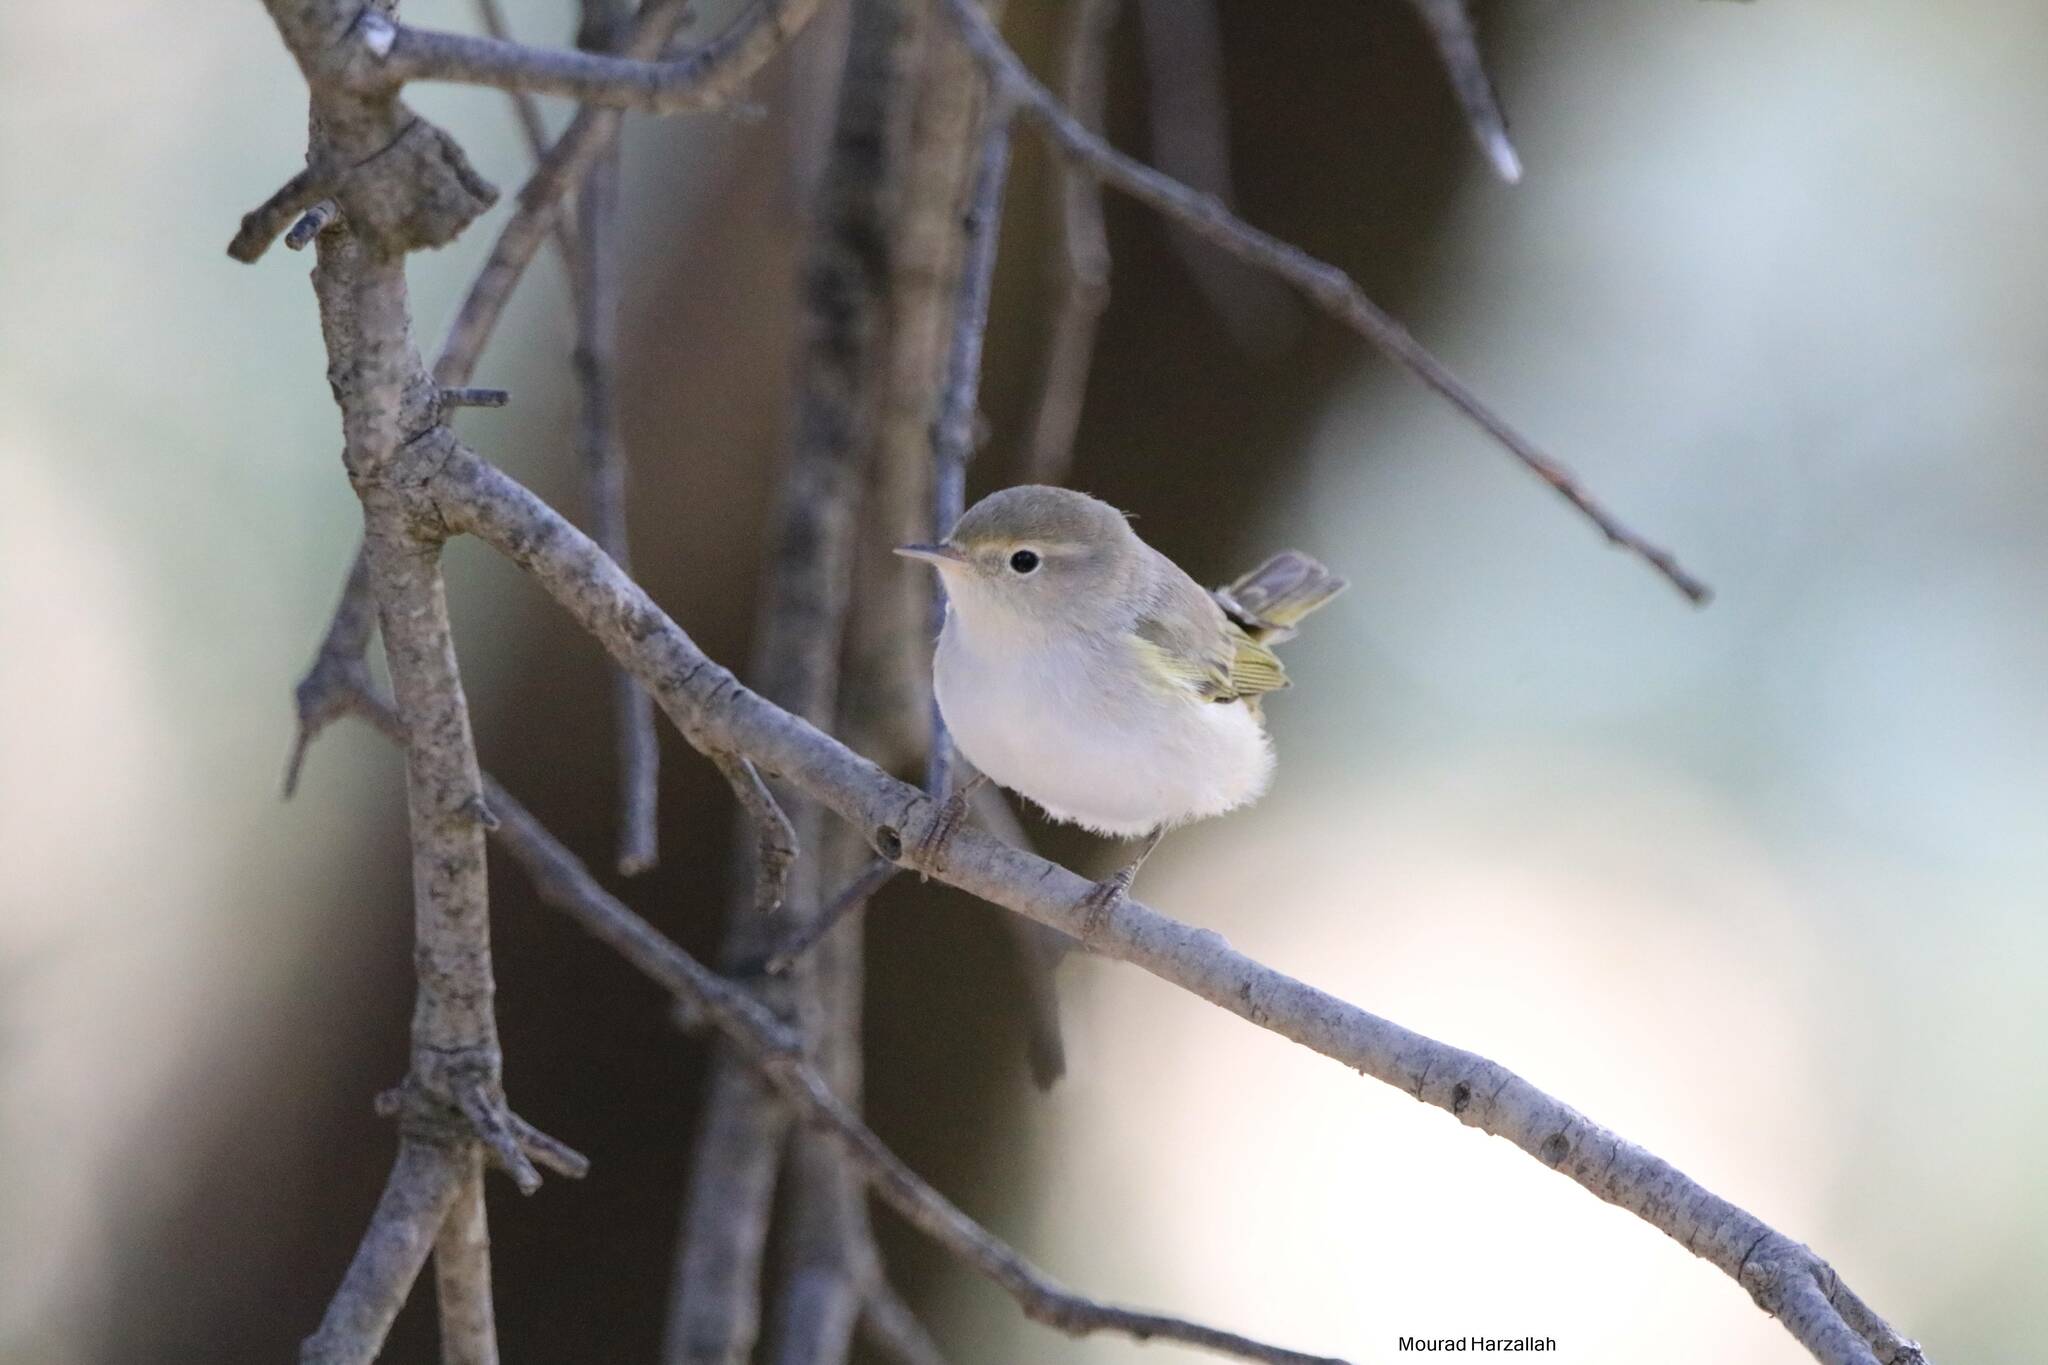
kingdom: Animalia
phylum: Chordata
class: Aves
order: Passeriformes
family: Phylloscopidae
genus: Phylloscopus
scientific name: Phylloscopus bonelli
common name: Western bonelli's warbler
